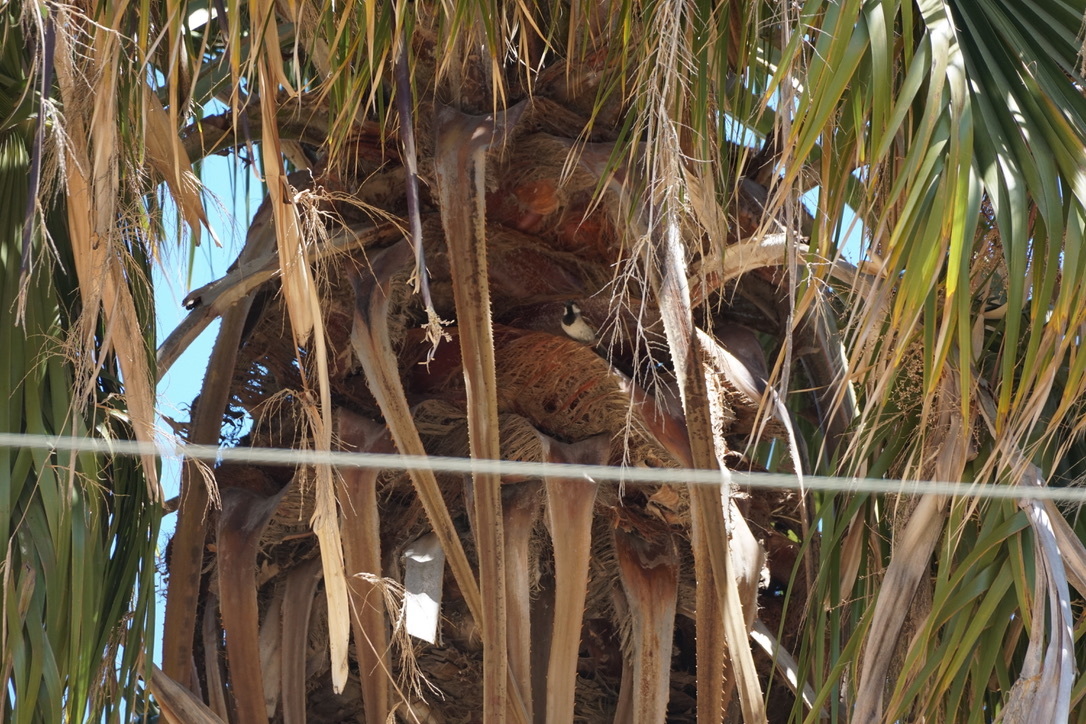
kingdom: Animalia
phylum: Chordata
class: Aves
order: Passeriformes
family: Passeridae
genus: Passer
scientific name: Passer domesticus
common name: House sparrow
